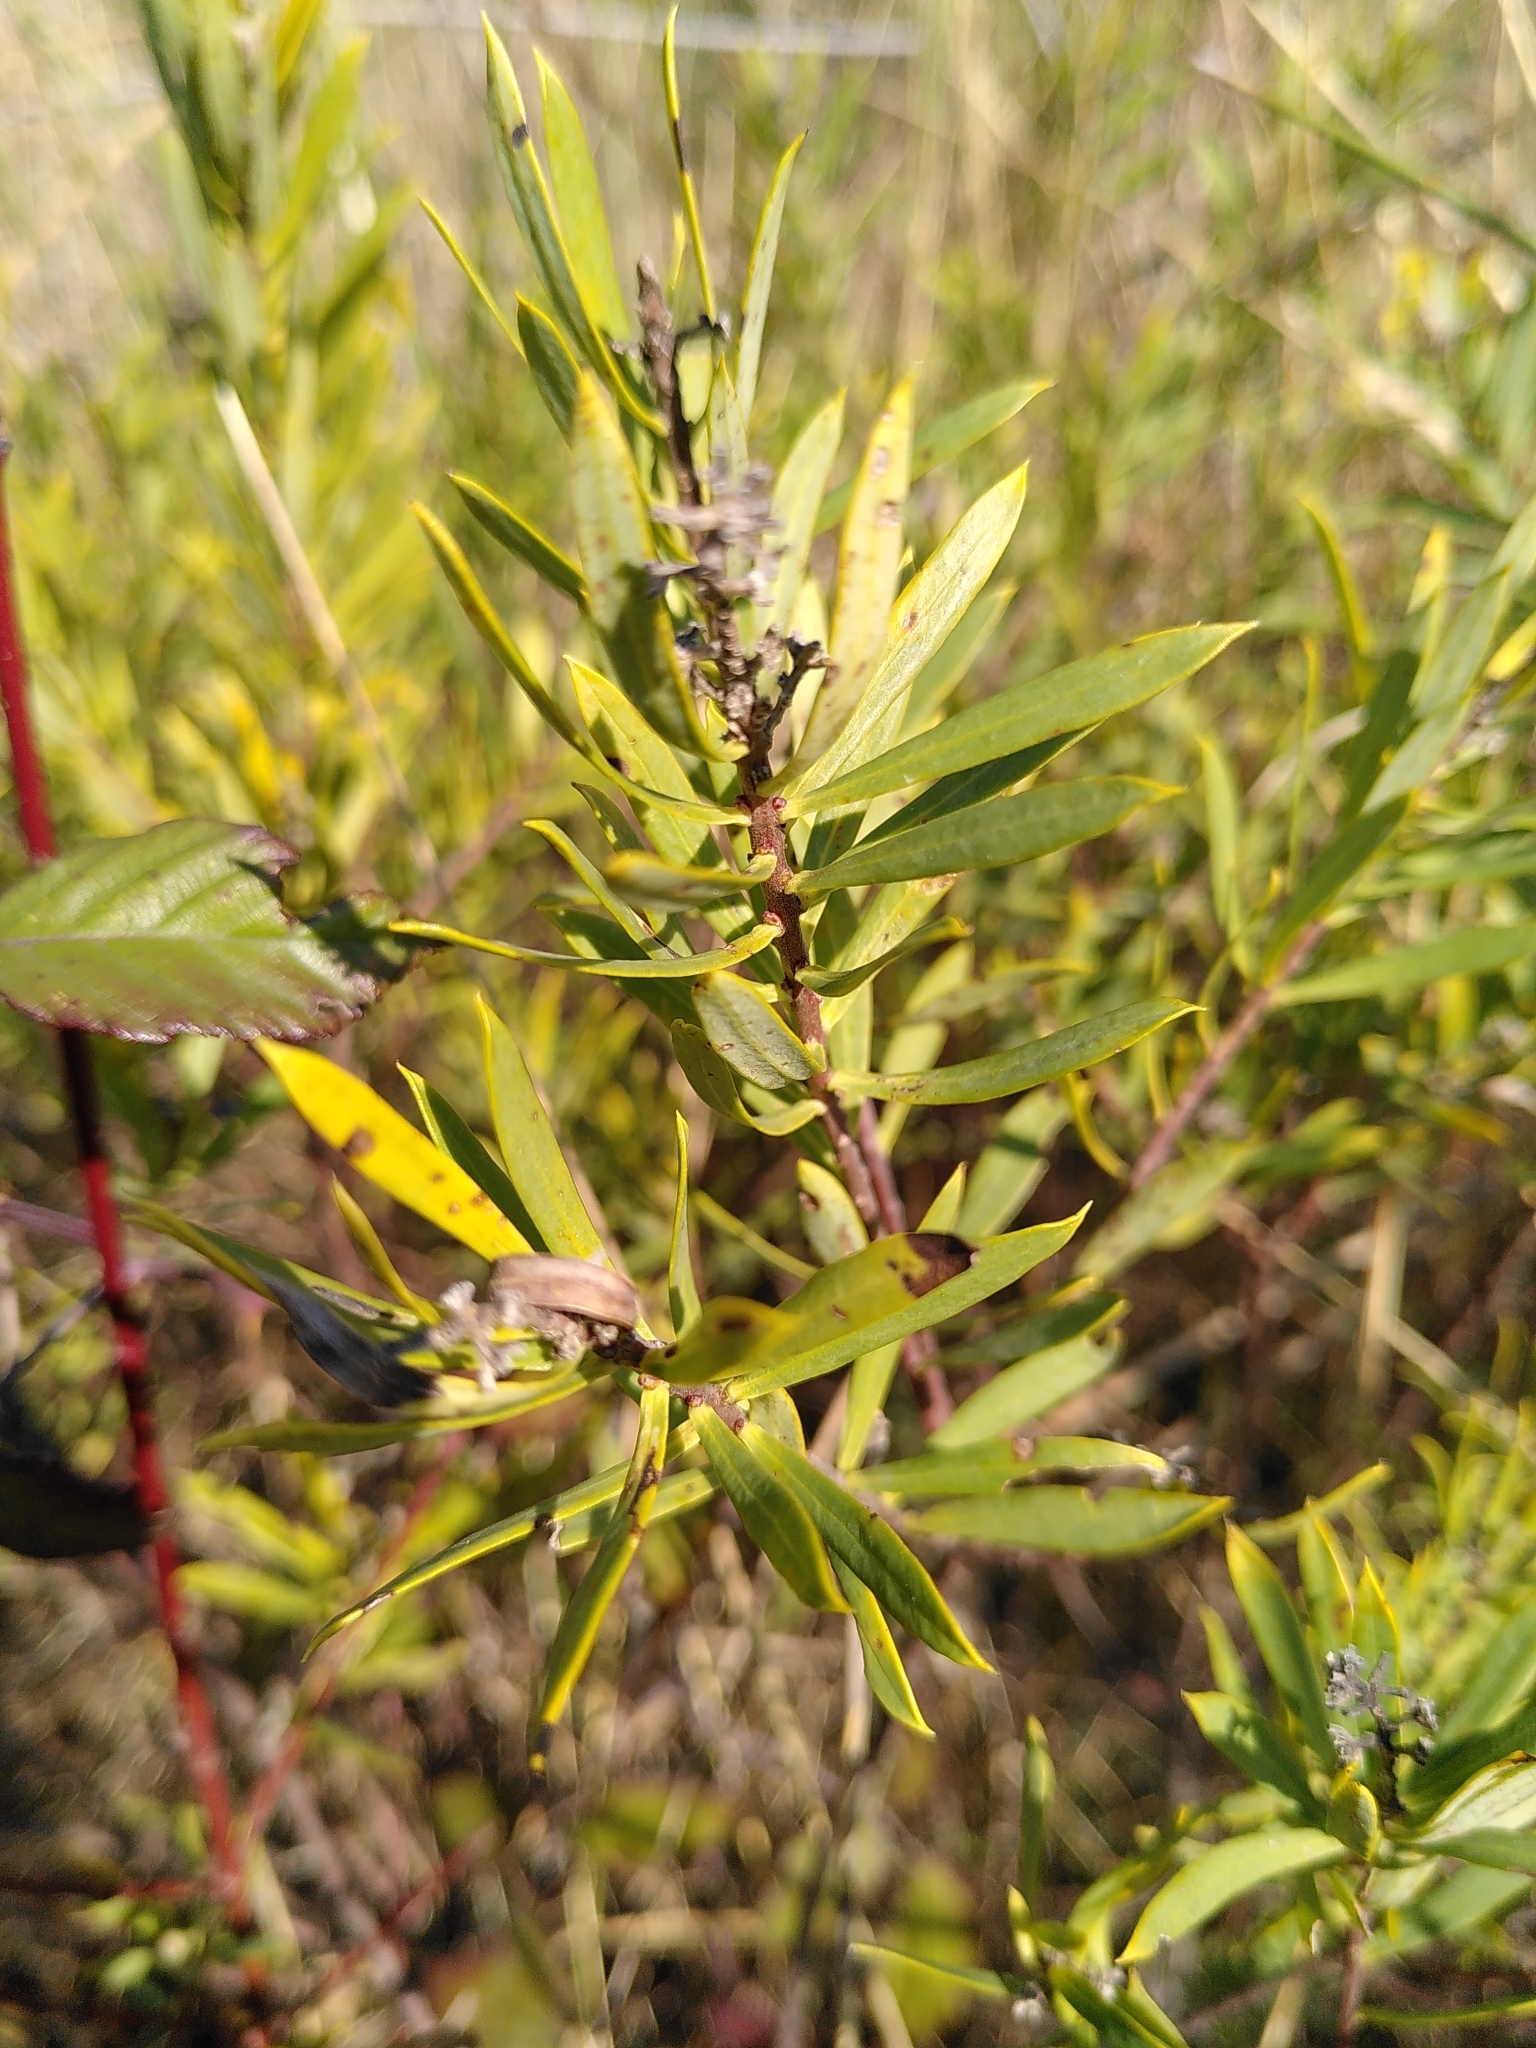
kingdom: Plantae
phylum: Tracheophyta
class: Magnoliopsida
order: Malvales
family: Thymelaeaceae
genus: Daphne
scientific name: Daphne gnidium
